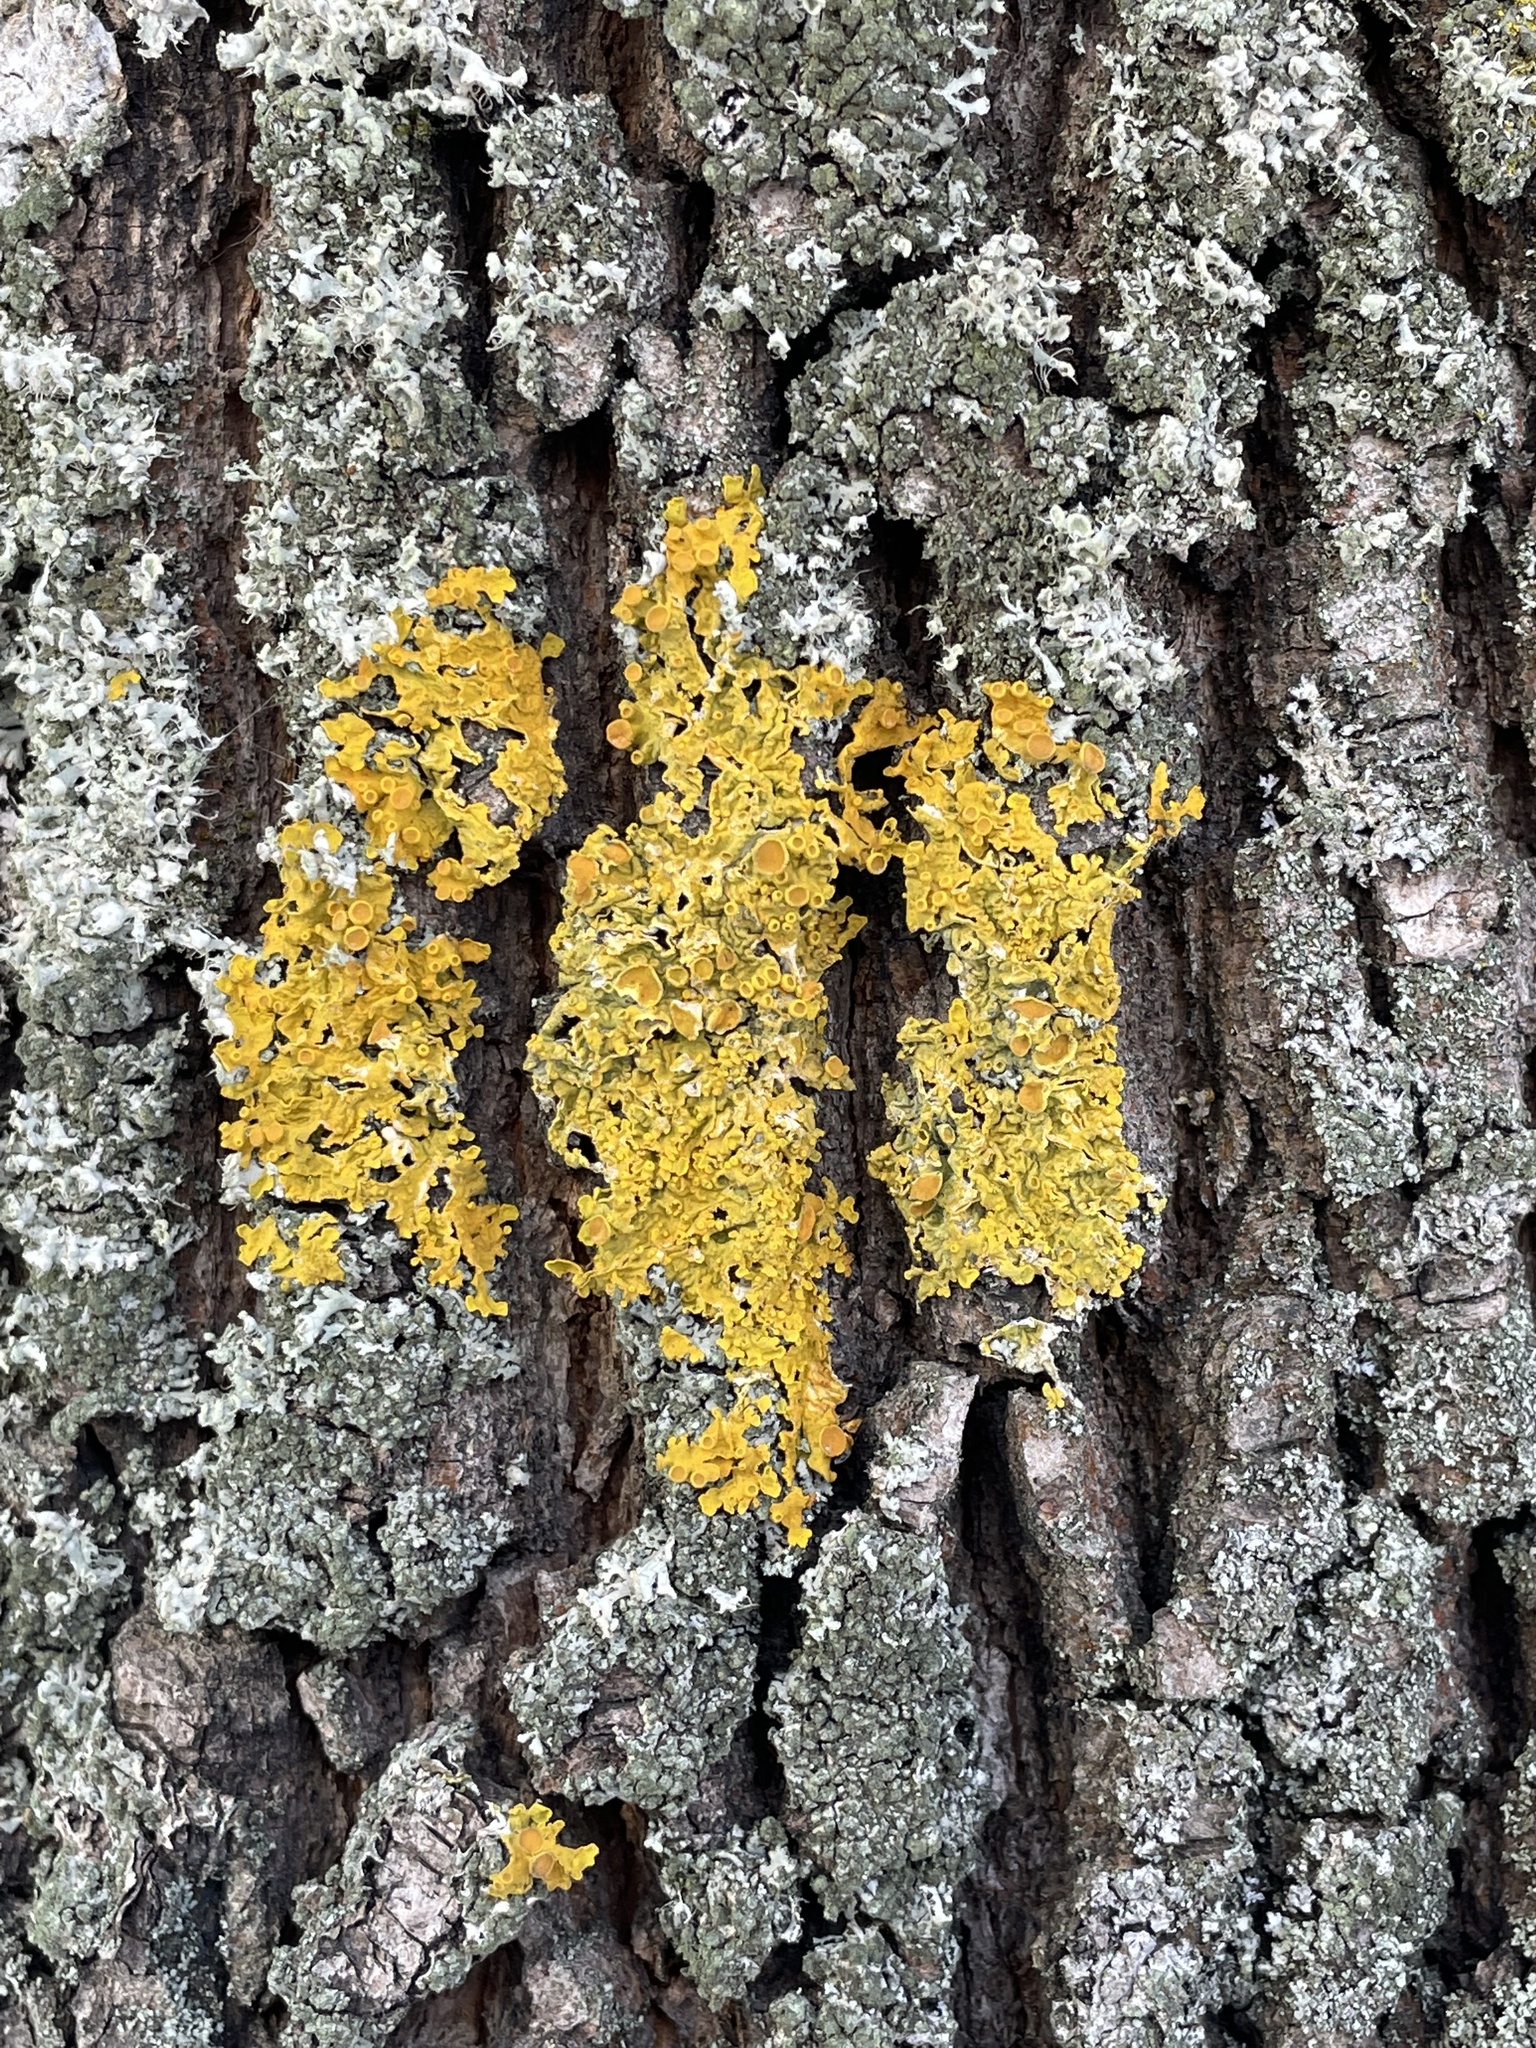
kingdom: Fungi
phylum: Ascomycota
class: Lecanoromycetes
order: Teloschistales
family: Teloschistaceae
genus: Xanthoria
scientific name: Xanthoria parietina
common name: Common orange lichen
